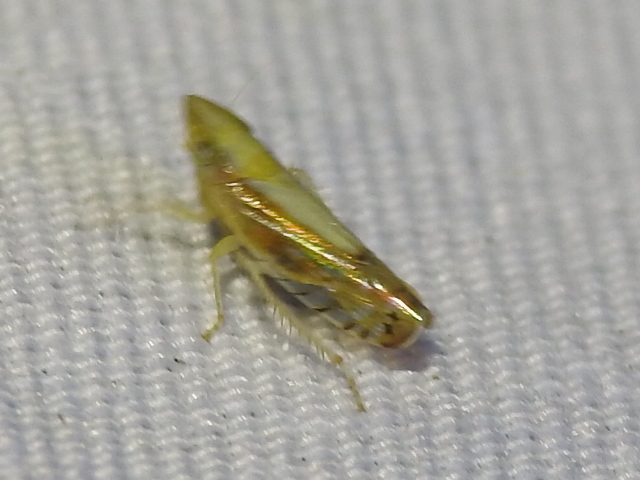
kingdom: Animalia
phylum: Arthropoda
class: Insecta
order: Hemiptera
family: Cicadellidae
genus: Scaphytopius
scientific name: Scaphytopius elegans
